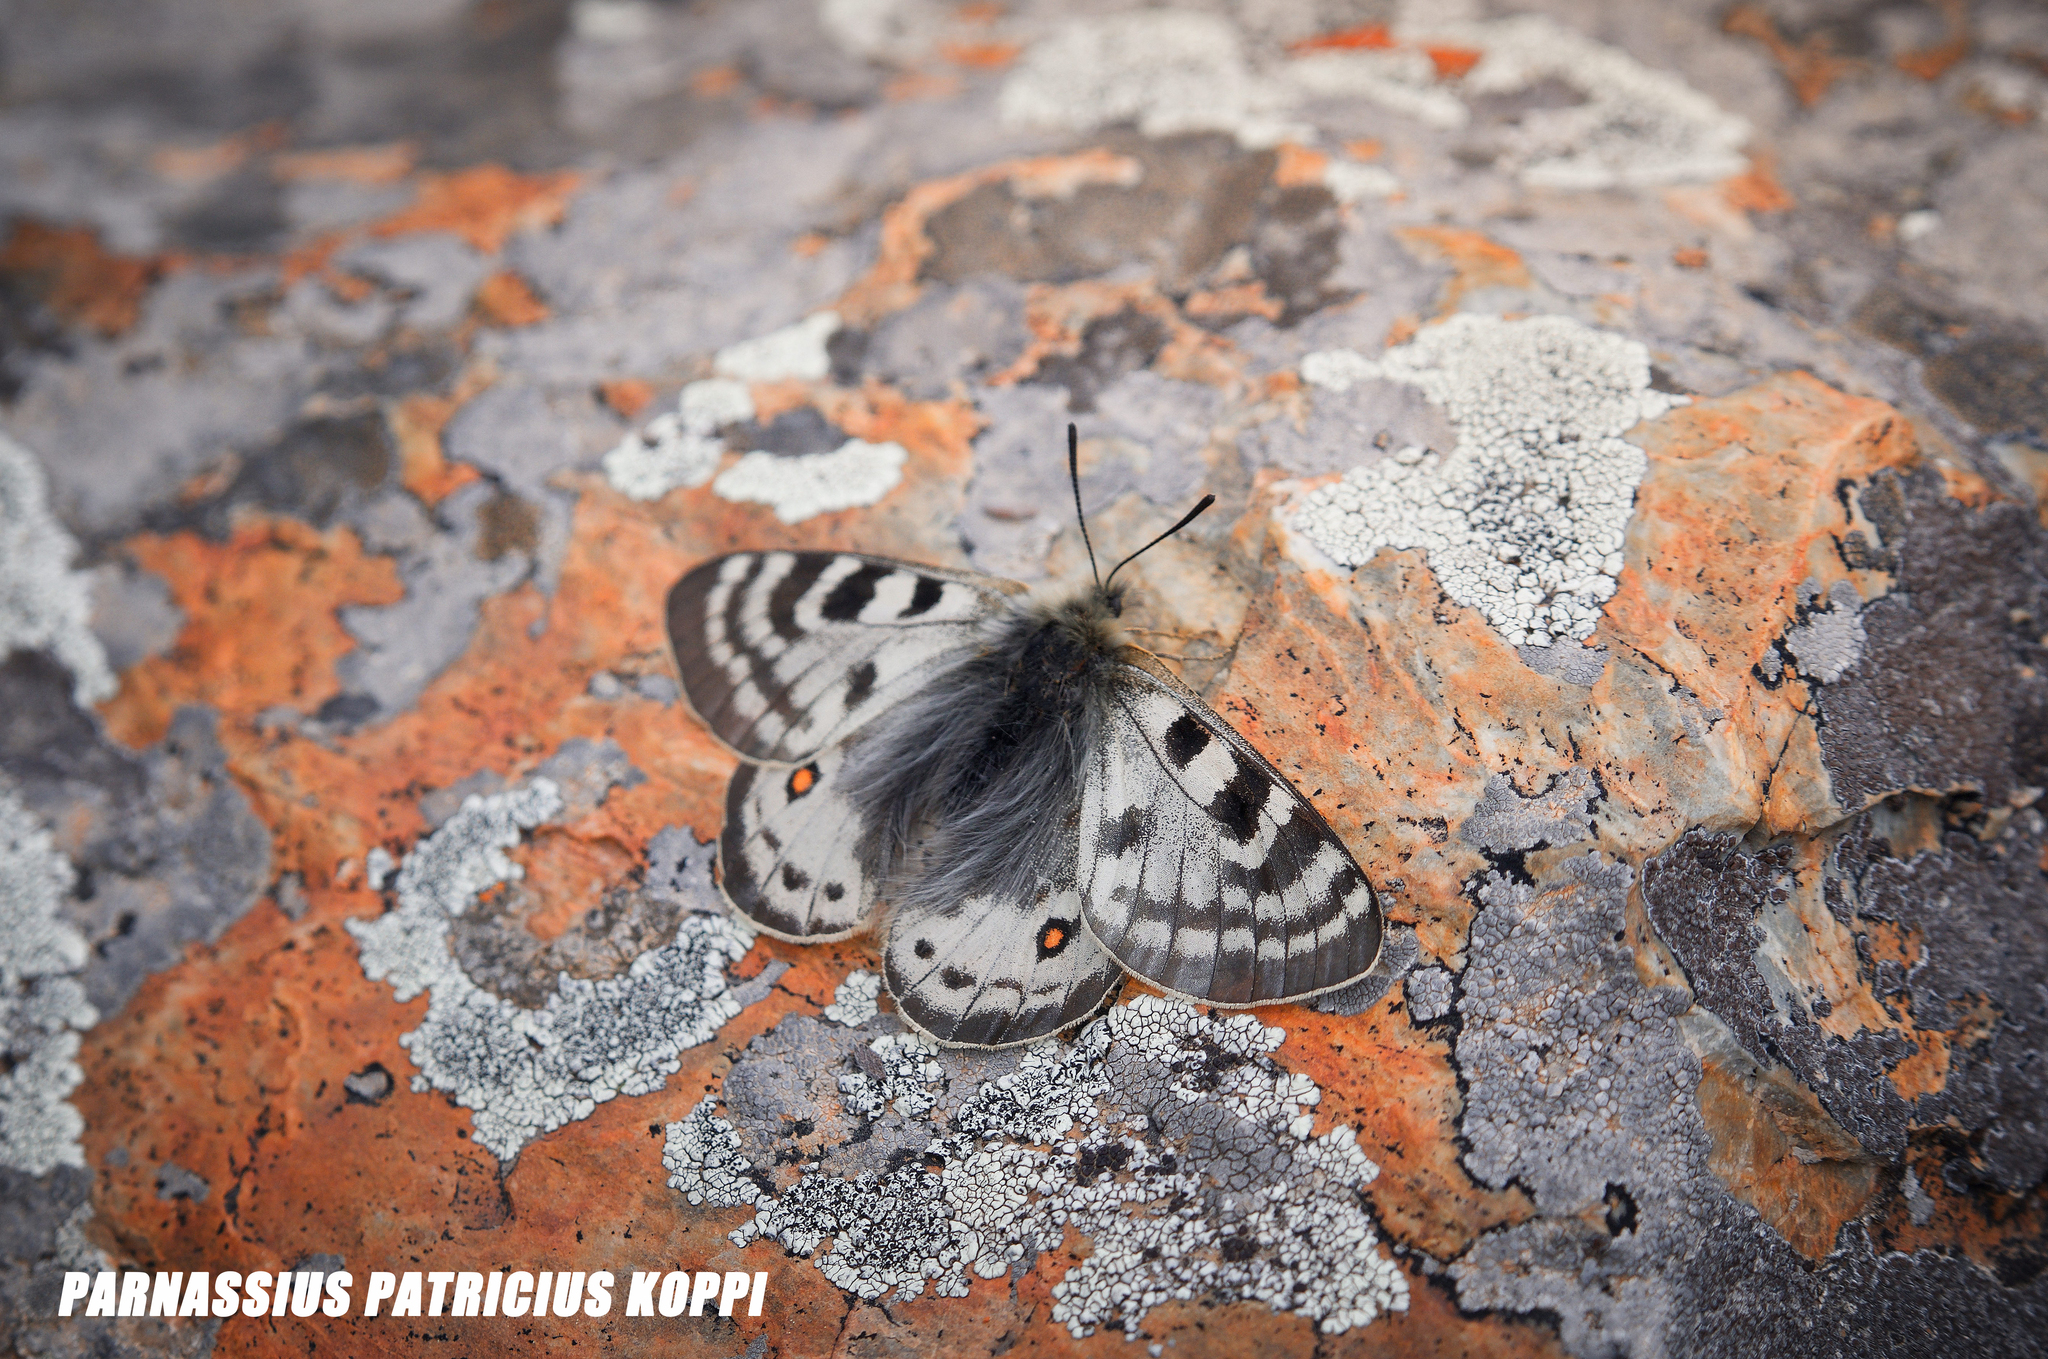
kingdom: Animalia
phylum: Arthropoda
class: Insecta
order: Lepidoptera
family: Papilionidae
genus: Parnassius
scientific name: Parnassius patricius
